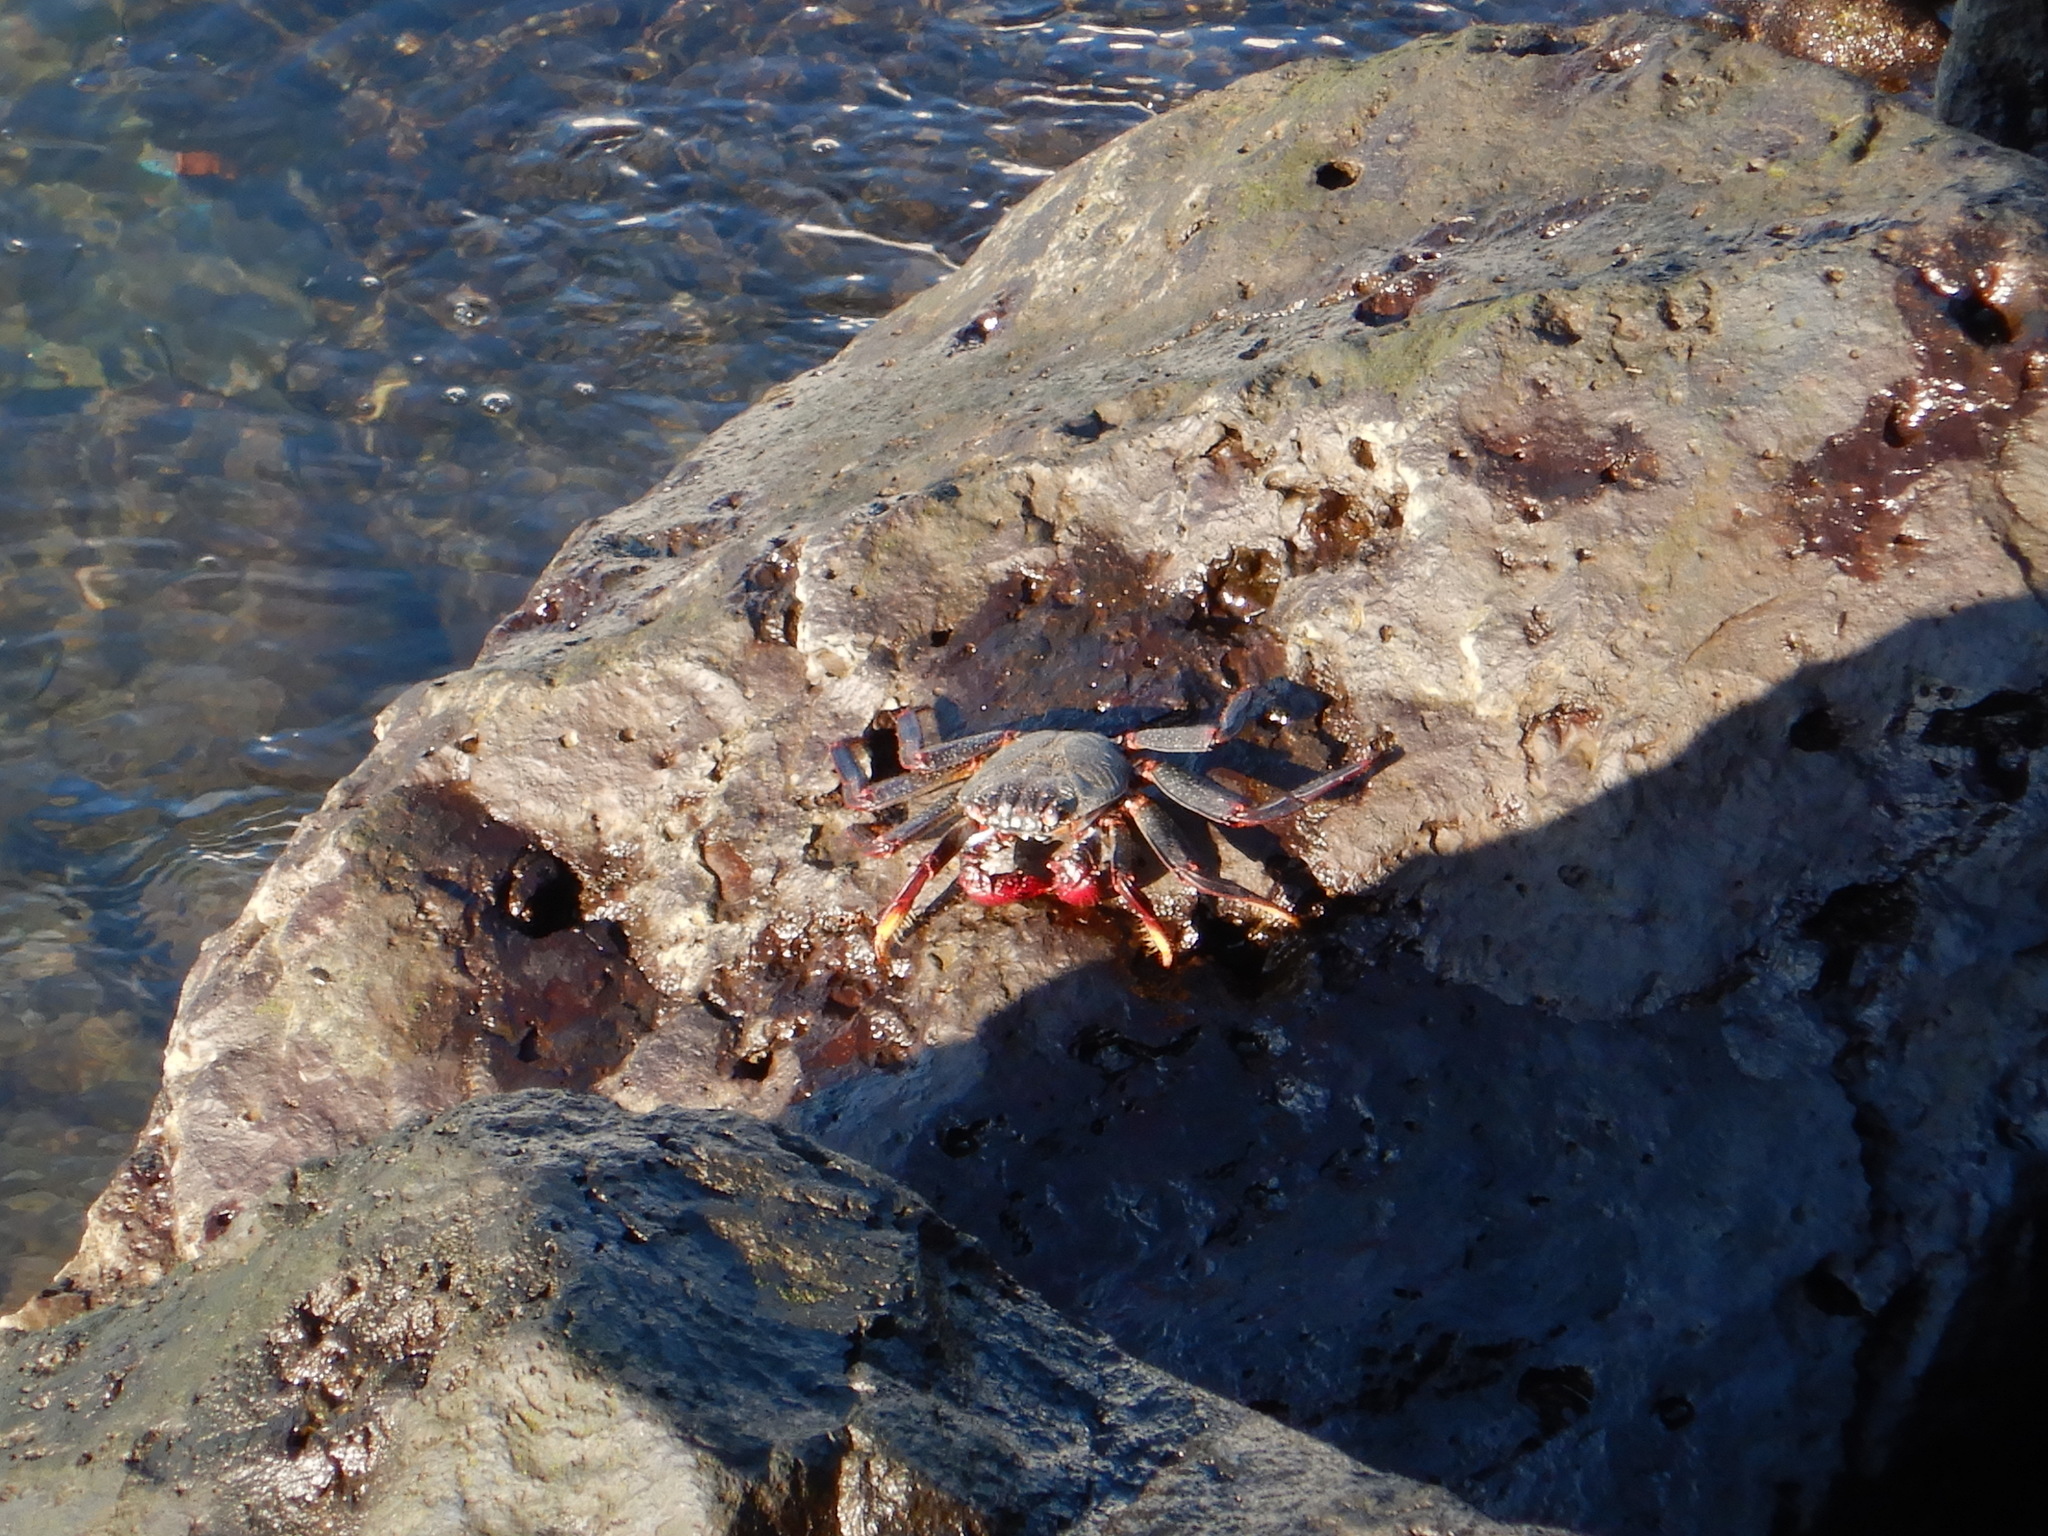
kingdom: Animalia
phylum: Arthropoda
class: Malacostraca
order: Decapoda
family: Grapsidae
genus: Grapsus
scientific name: Grapsus adscensionis
